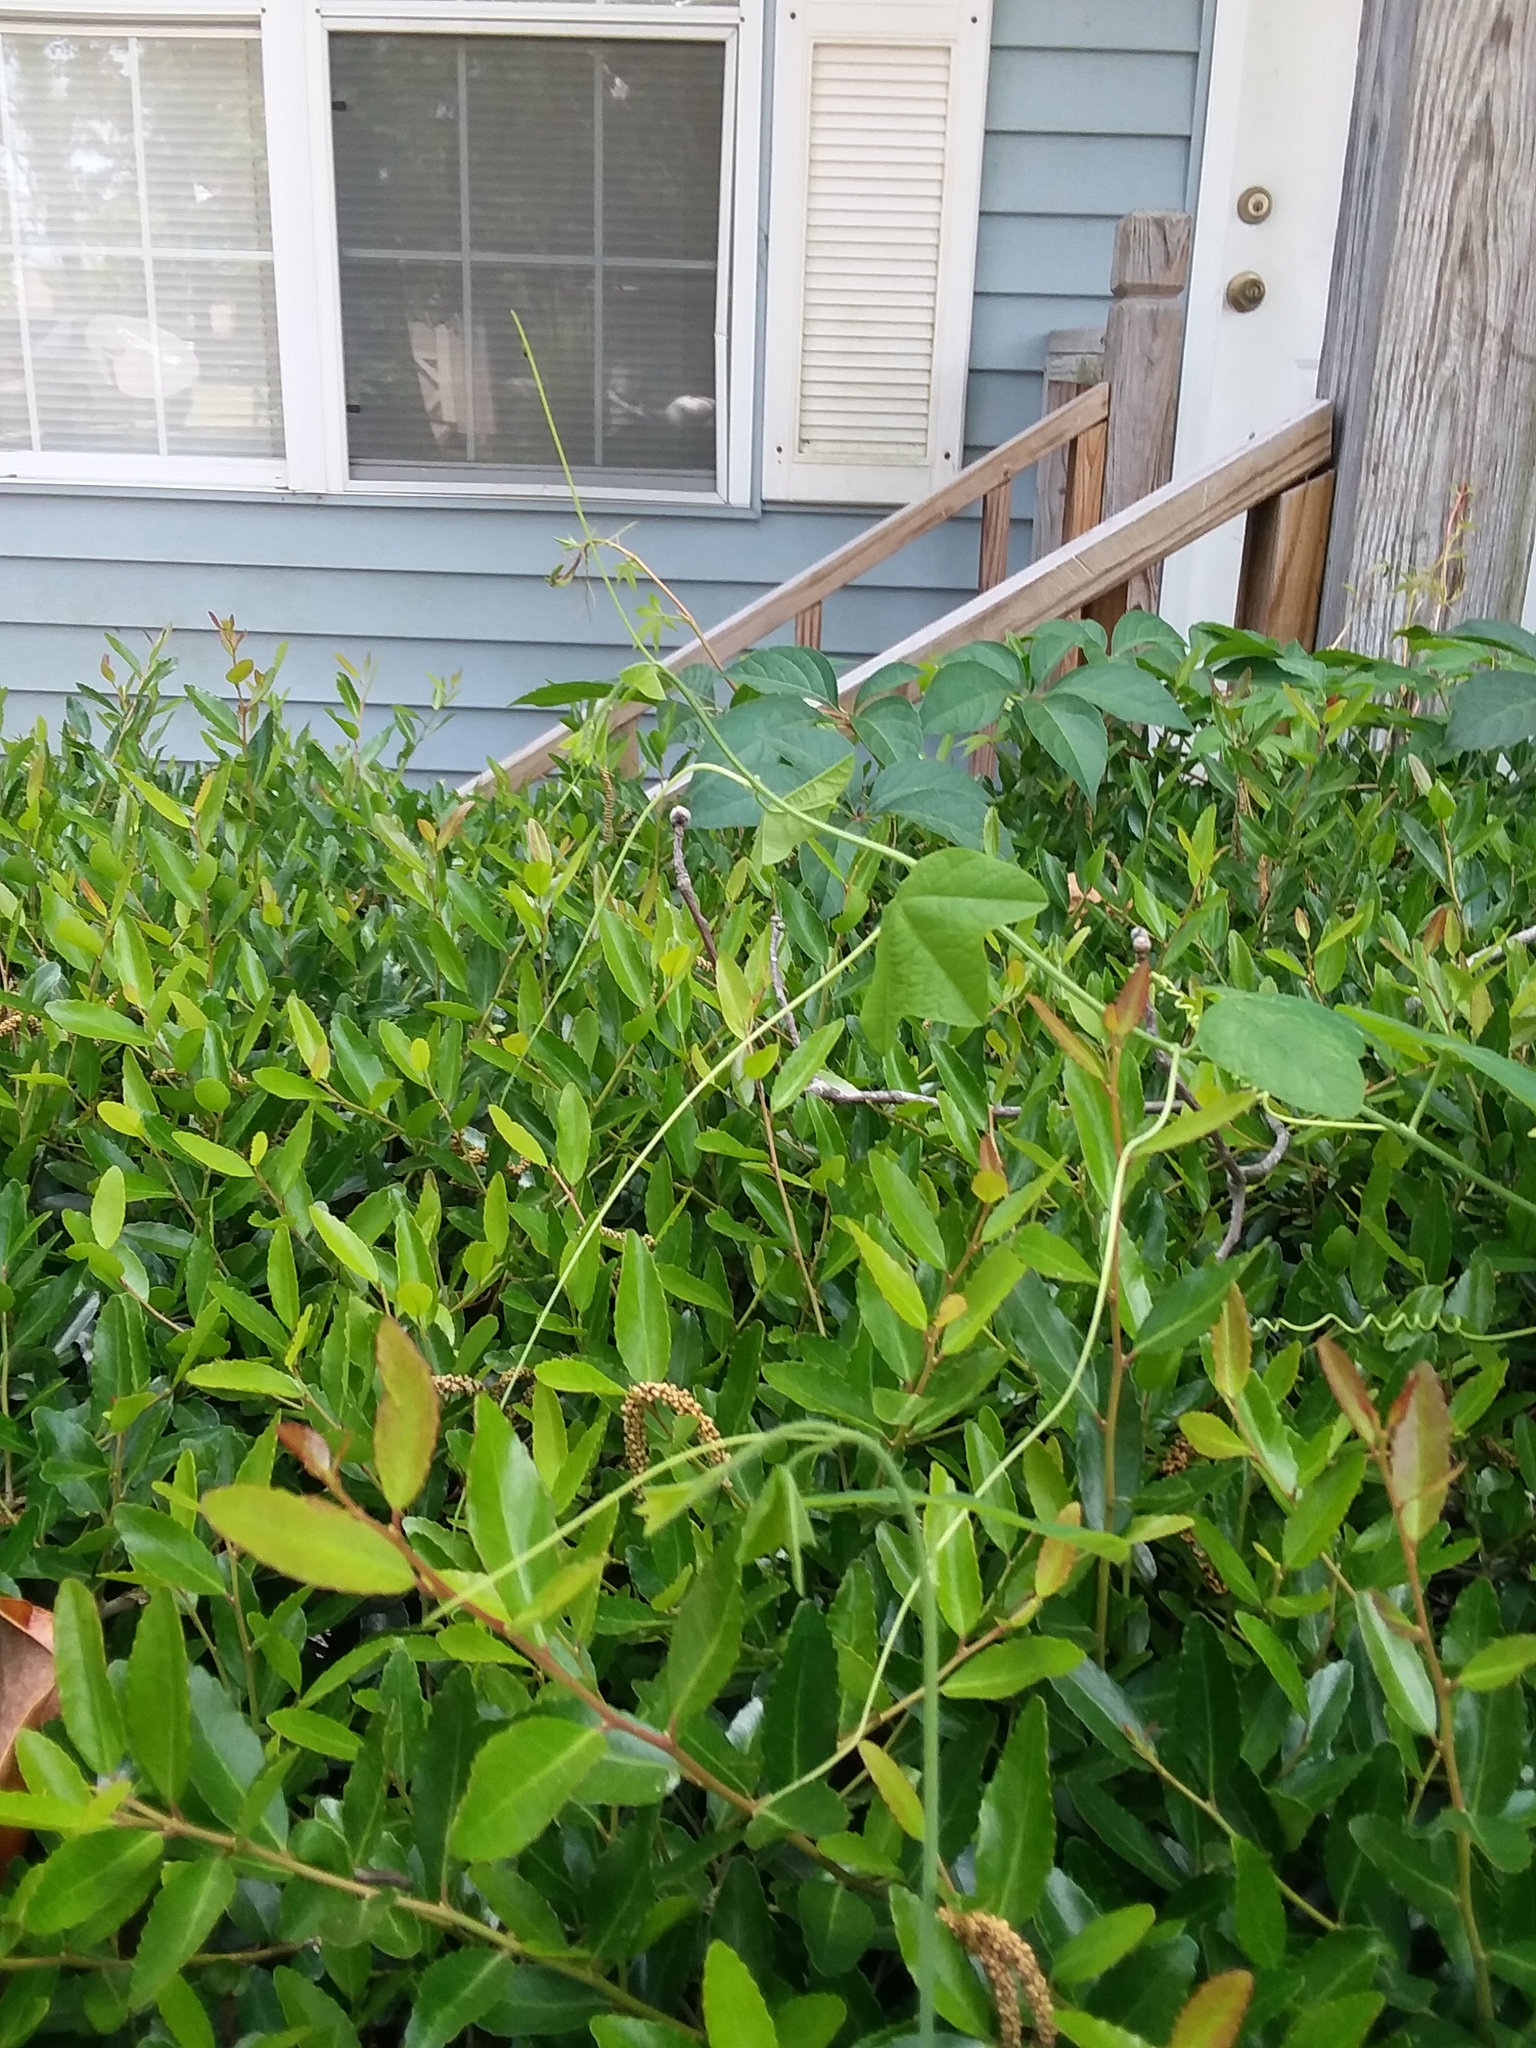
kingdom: Plantae
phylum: Tracheophyta
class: Magnoliopsida
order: Malpighiales
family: Passifloraceae
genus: Passiflora
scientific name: Passiflora lutea
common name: Yellow passionflower
